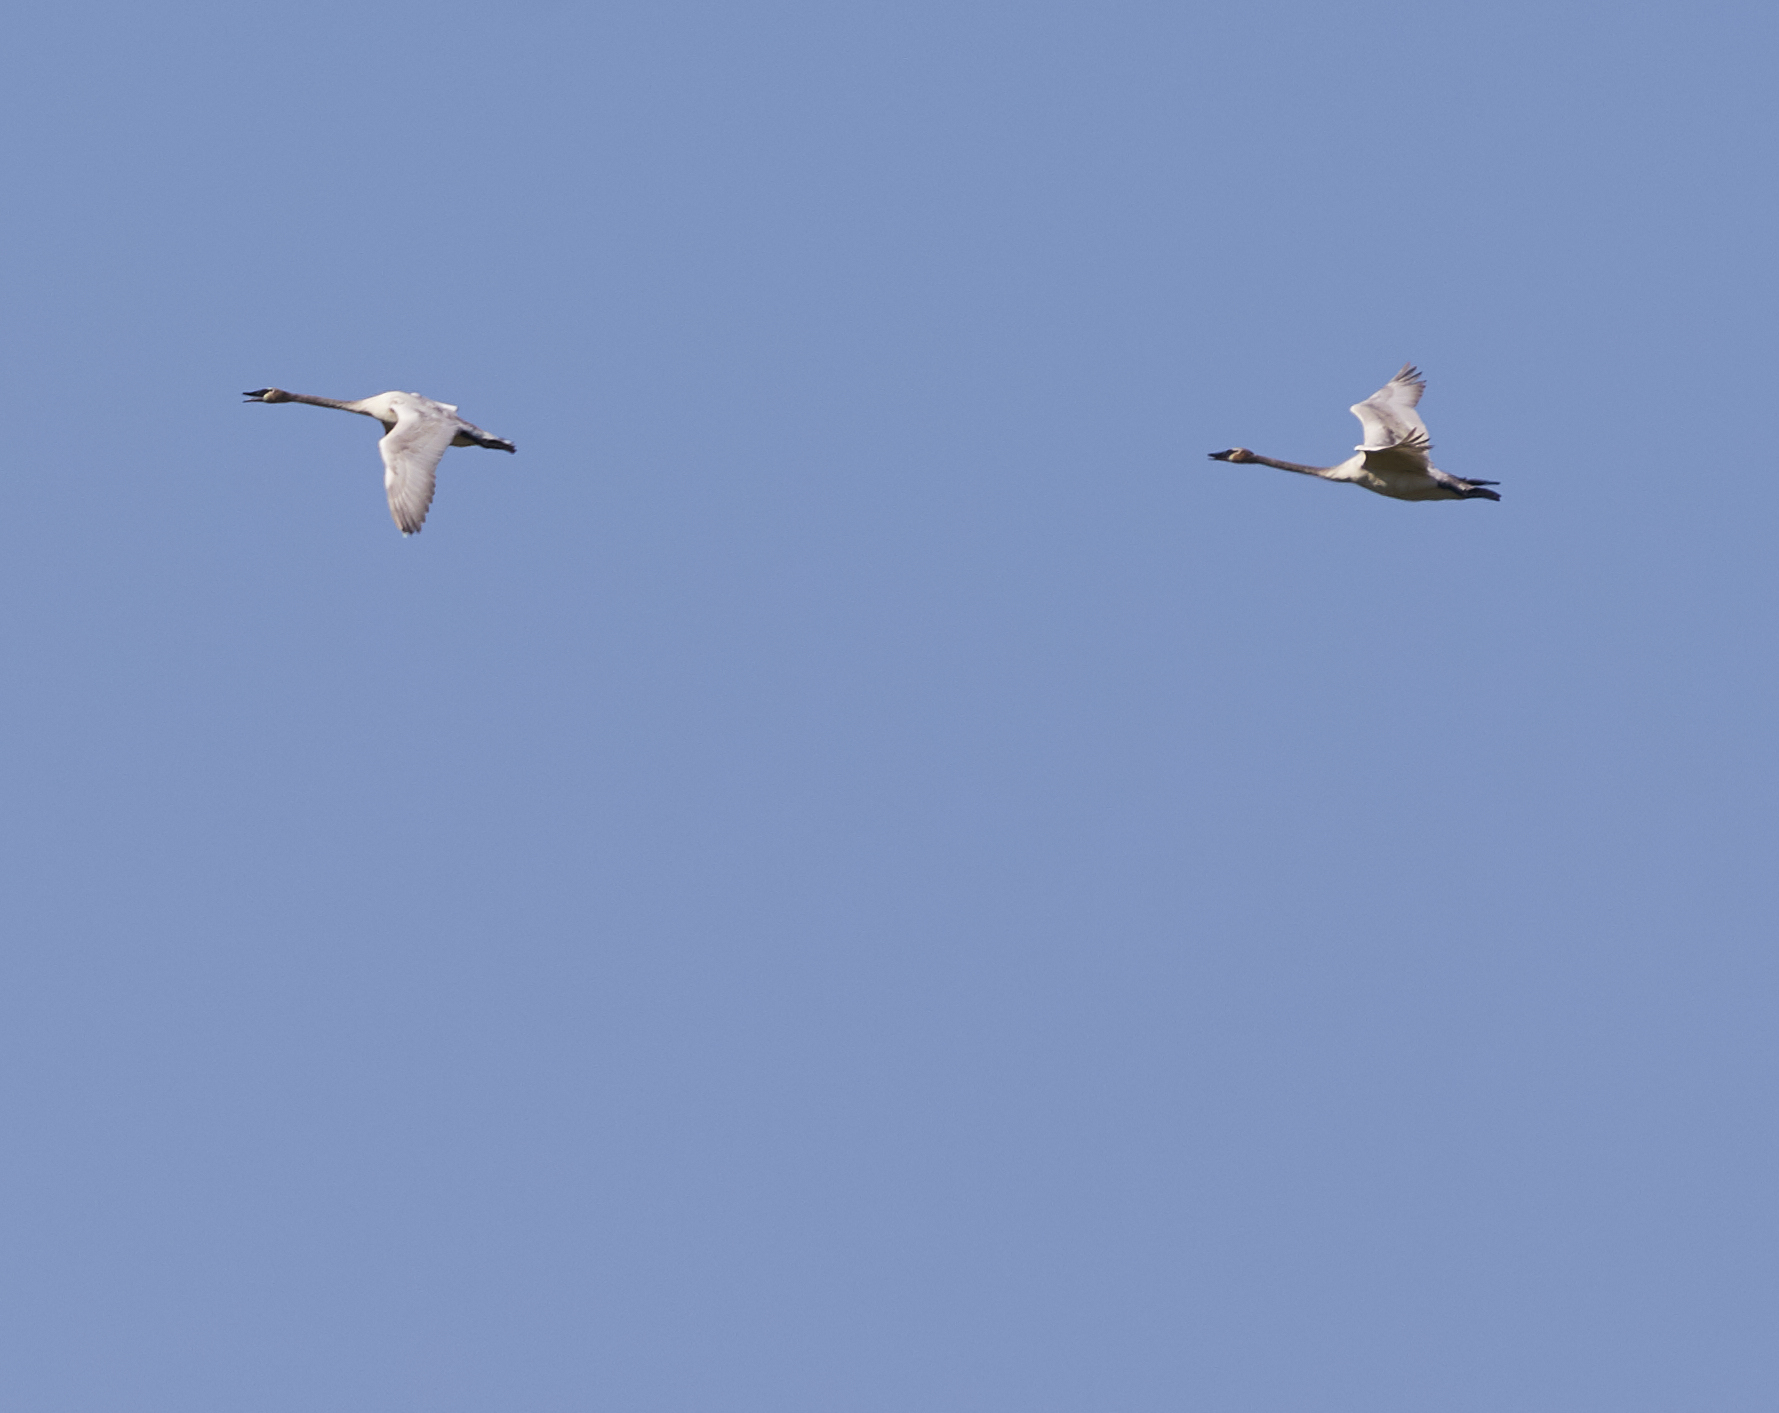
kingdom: Animalia
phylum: Chordata
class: Aves
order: Anseriformes
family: Anatidae
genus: Cygnus
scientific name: Cygnus buccinator
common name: Trumpeter swan
